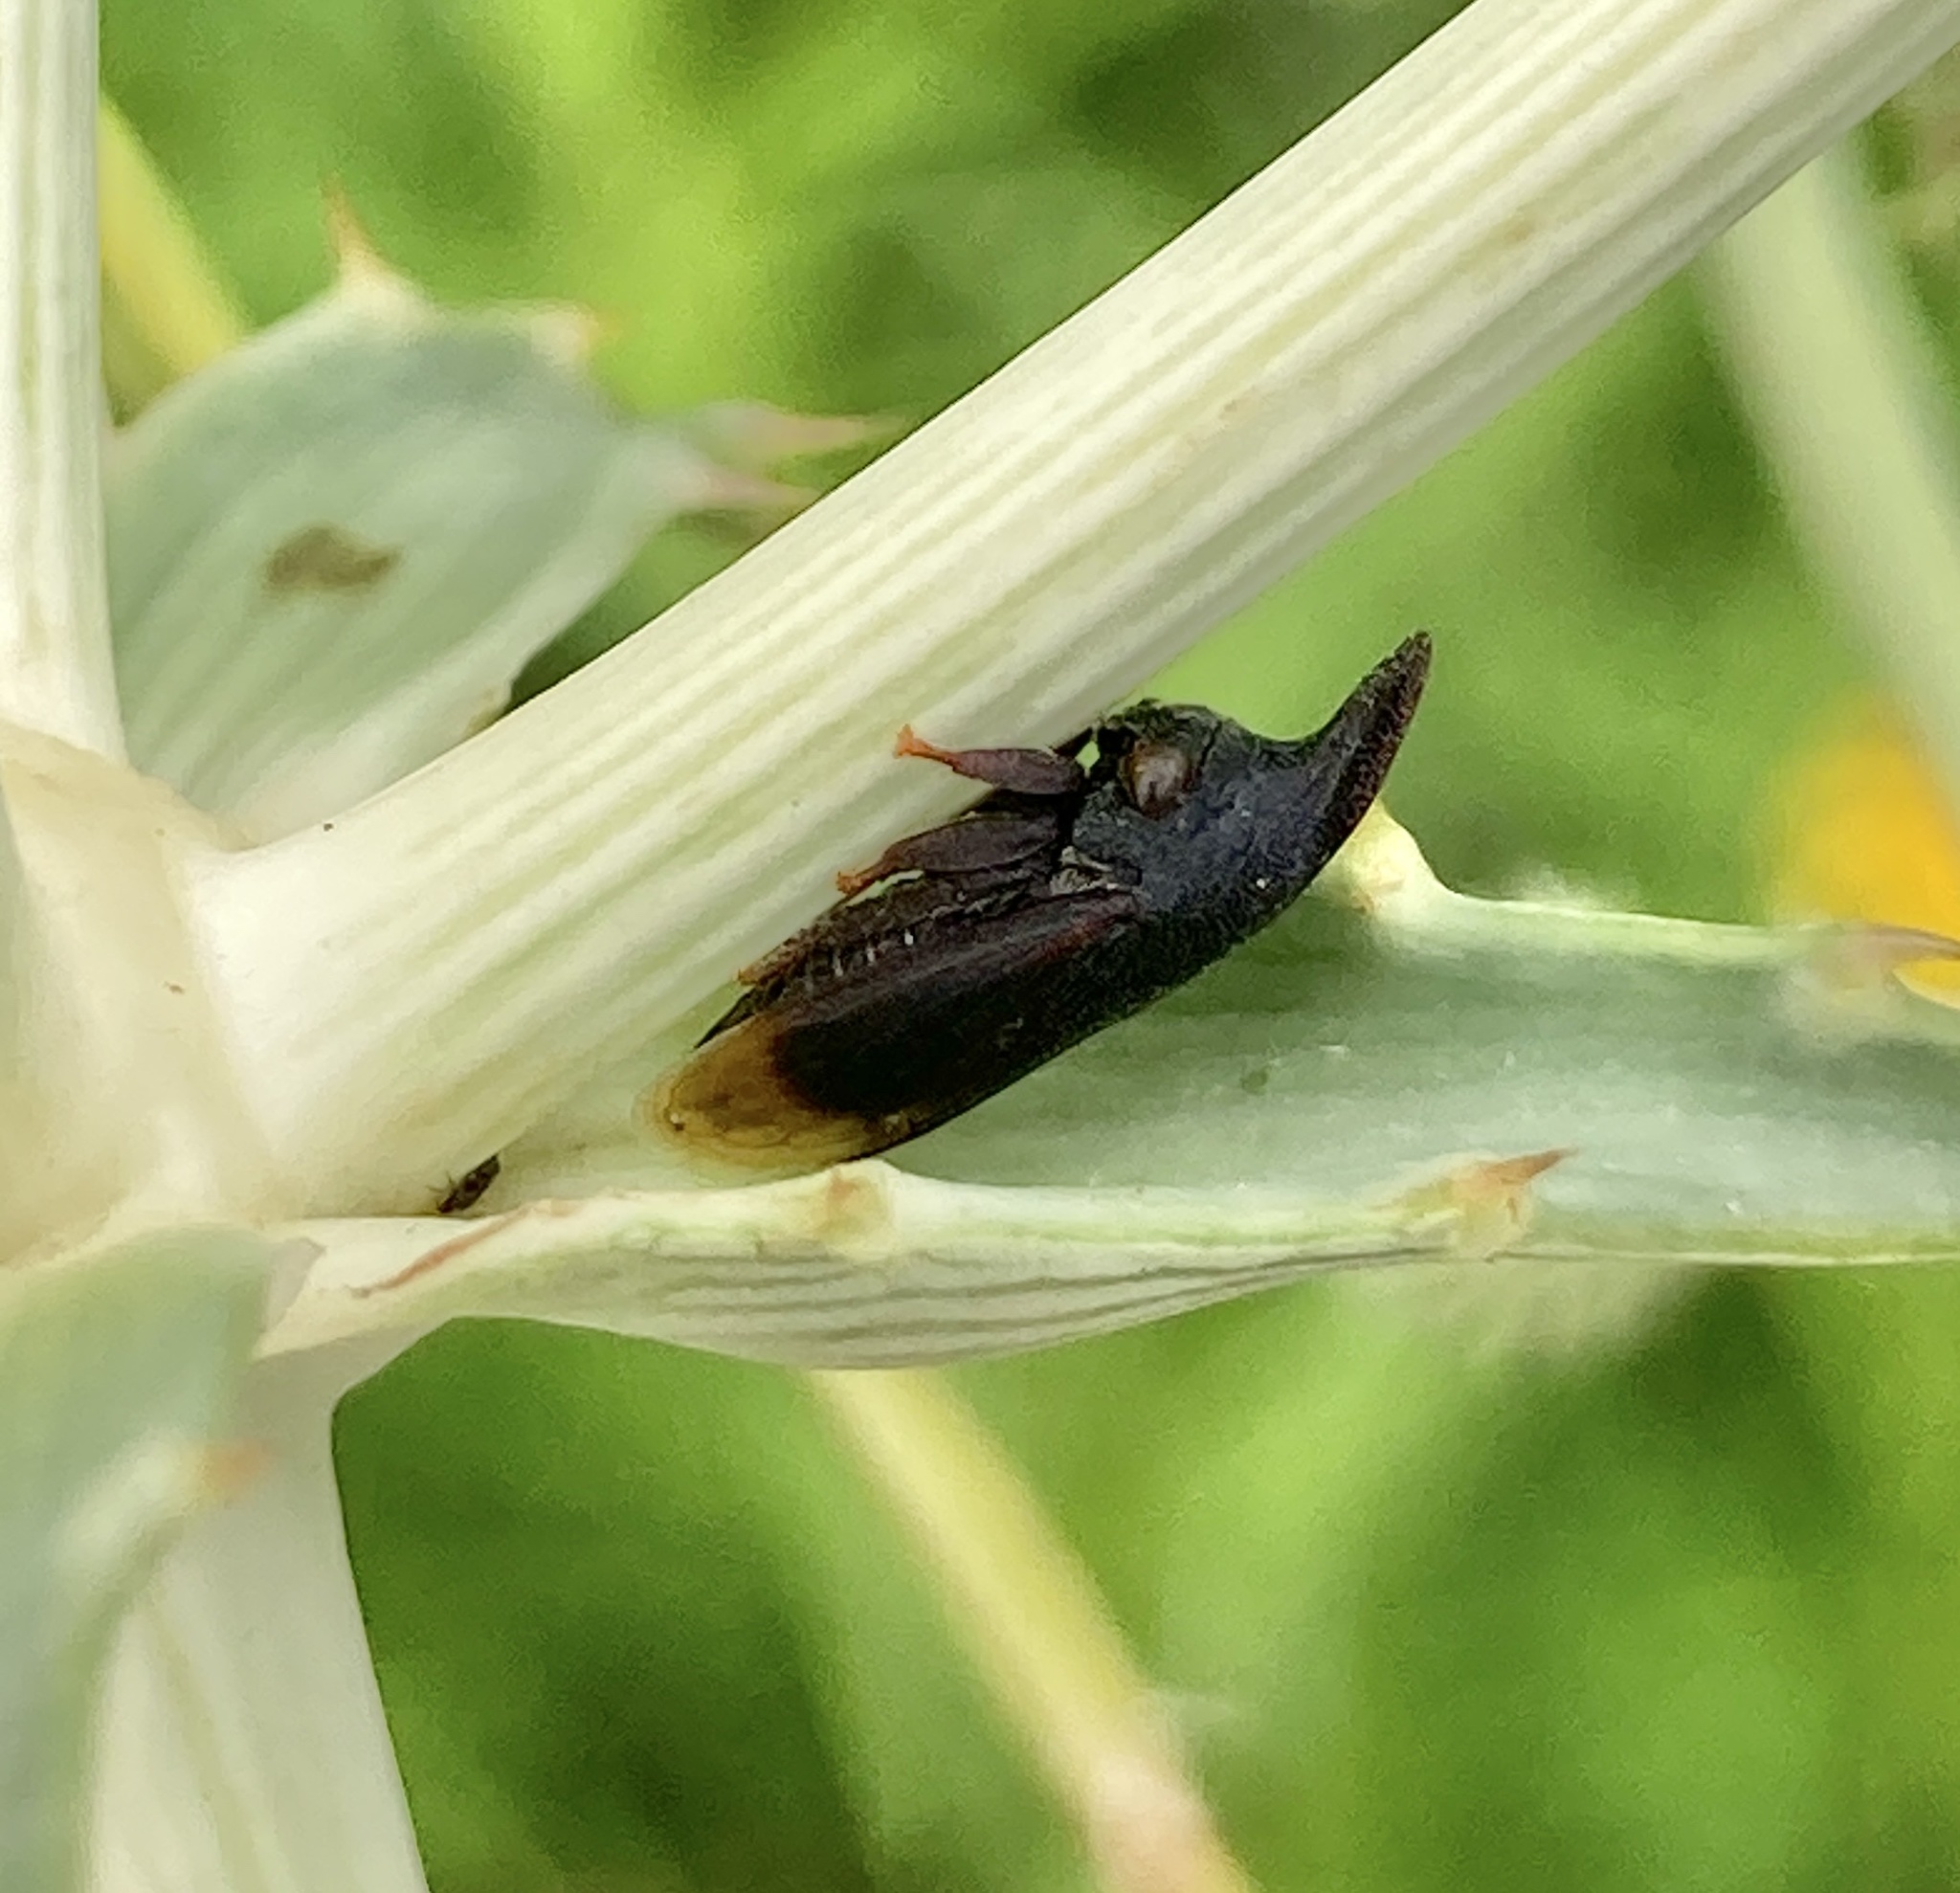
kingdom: Animalia
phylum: Arthropoda
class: Insecta
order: Hemiptera
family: Membracidae
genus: Kronides
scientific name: Kronides incumbens
